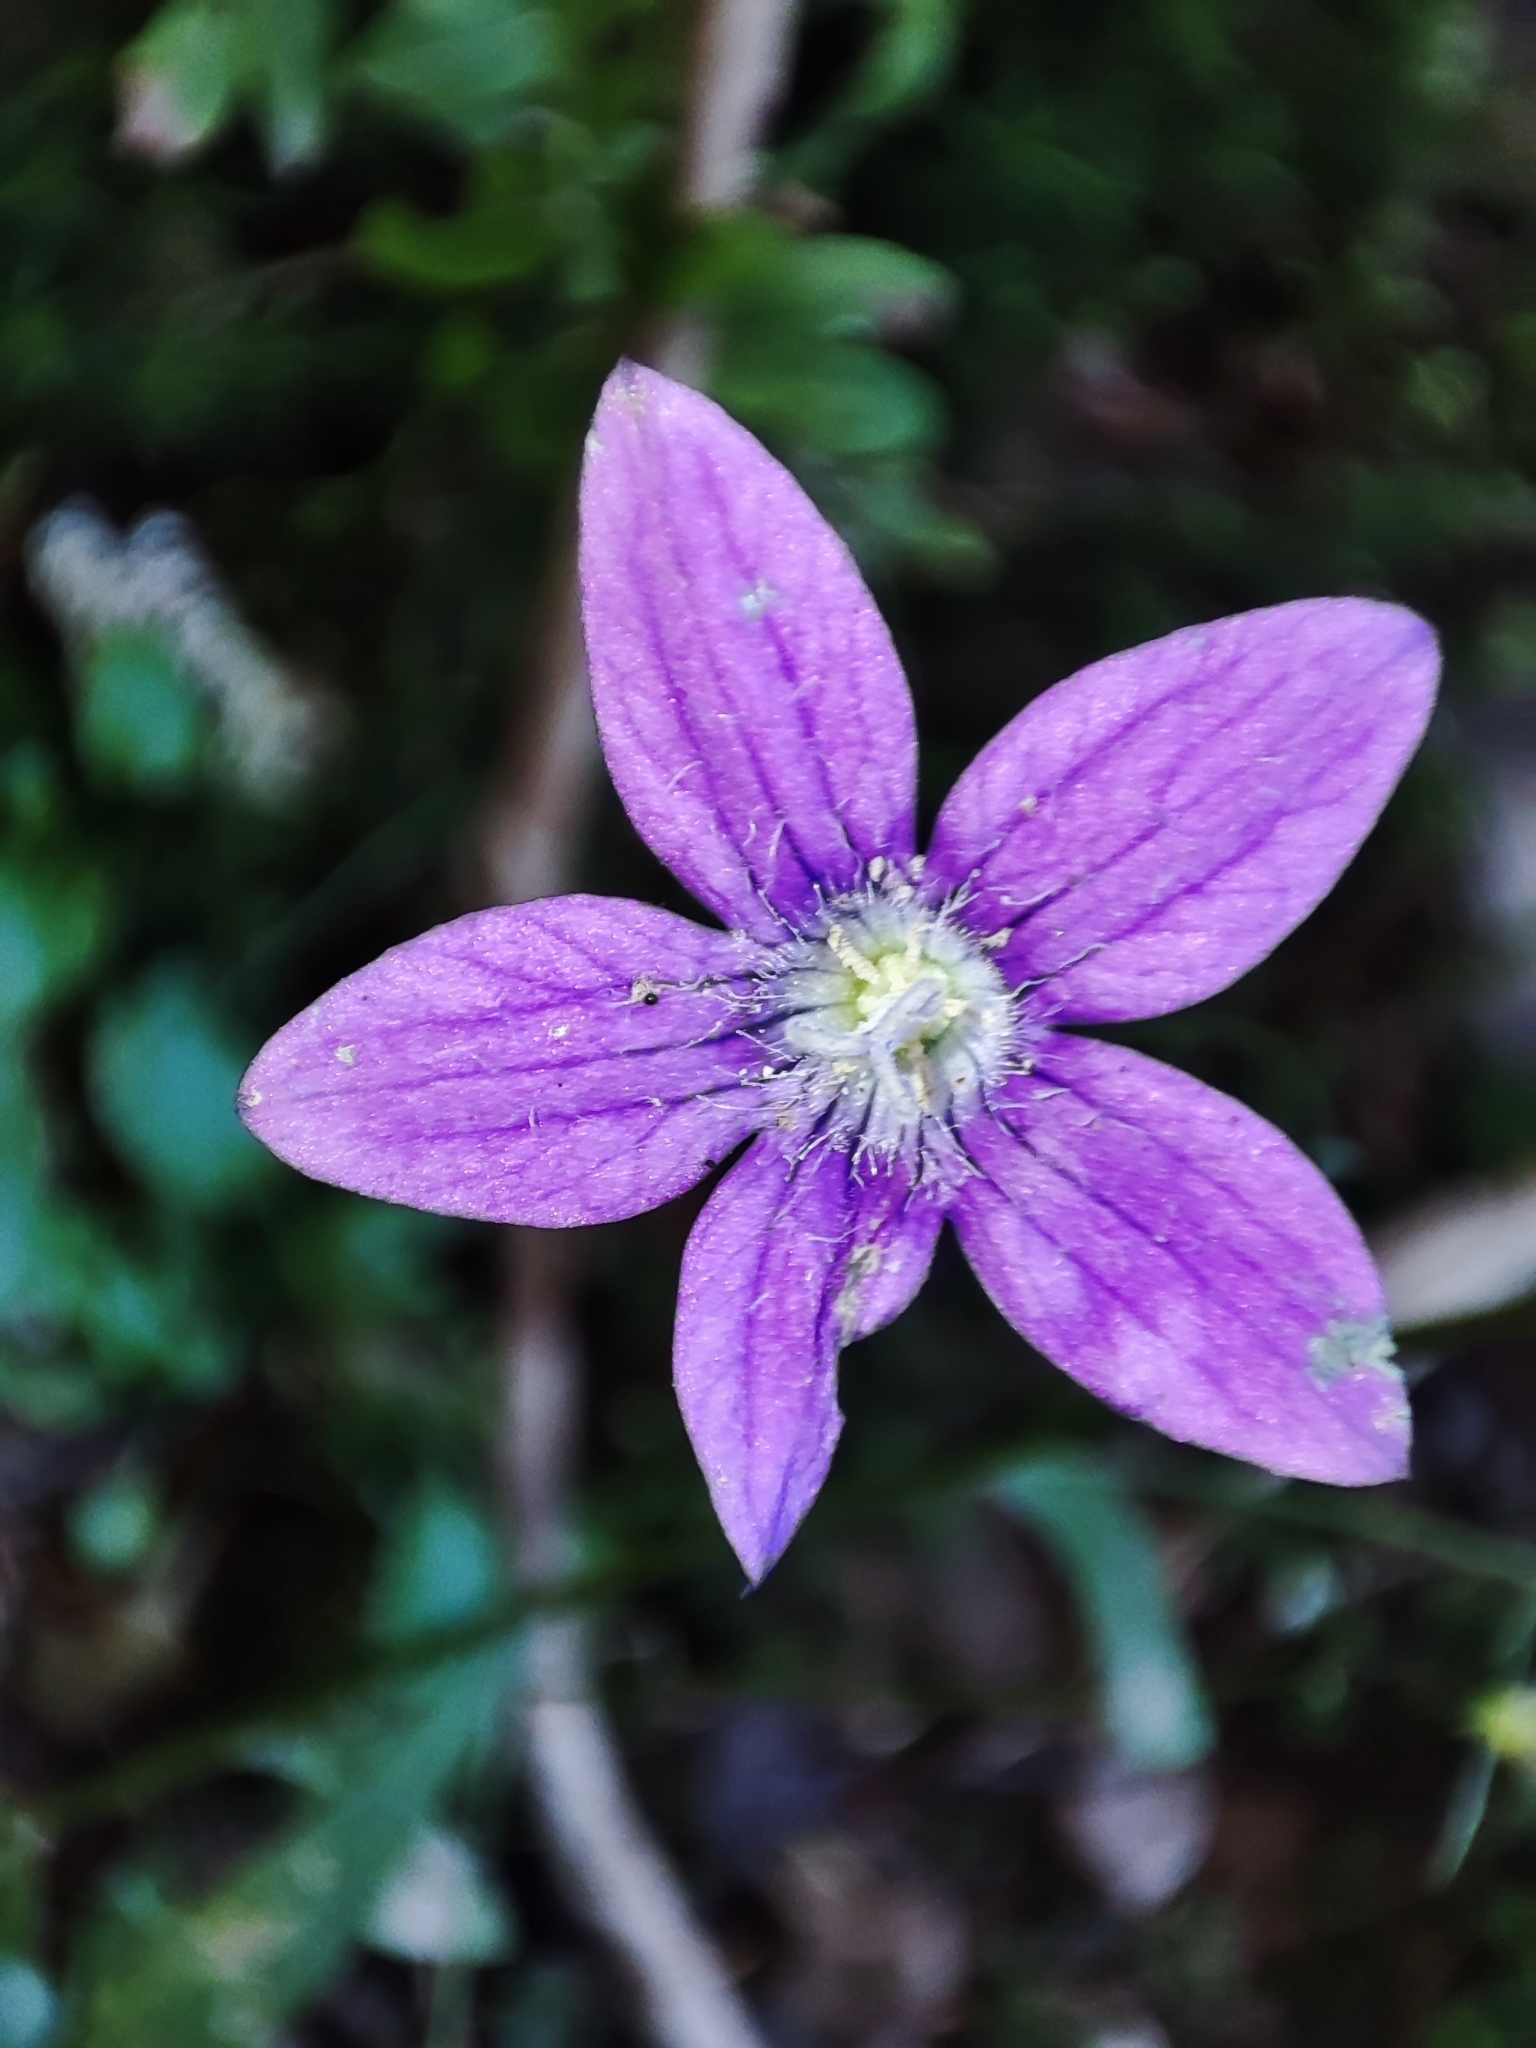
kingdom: Plantae
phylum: Tracheophyta
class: Magnoliopsida
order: Asterales
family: Campanulaceae
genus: Campanula
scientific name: Campanula patula
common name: Spreading bellflower
